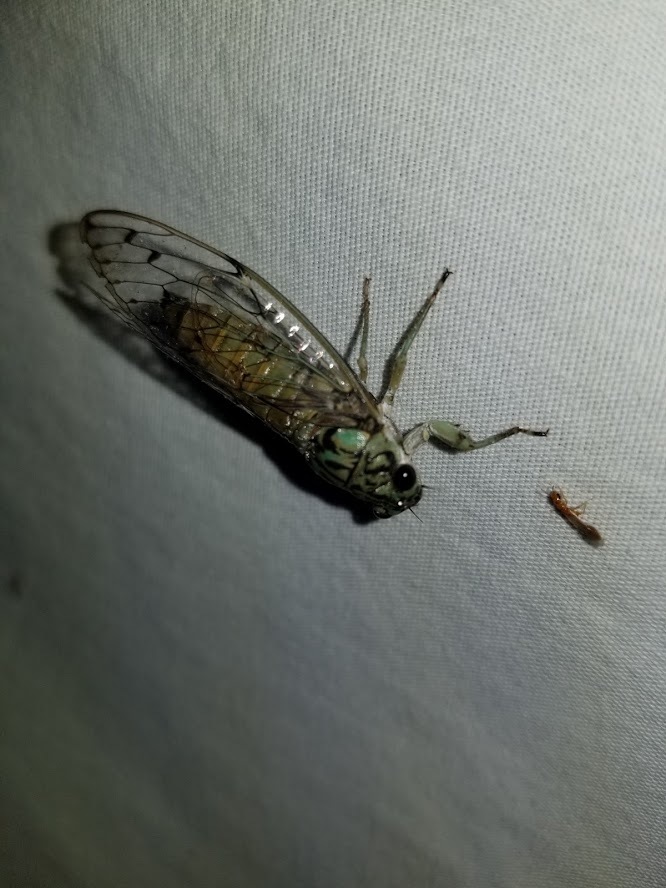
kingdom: Animalia
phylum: Arthropoda
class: Insecta
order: Hemiptera
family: Cicadidae
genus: Neocicada
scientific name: Neocicada hieroglyphica
